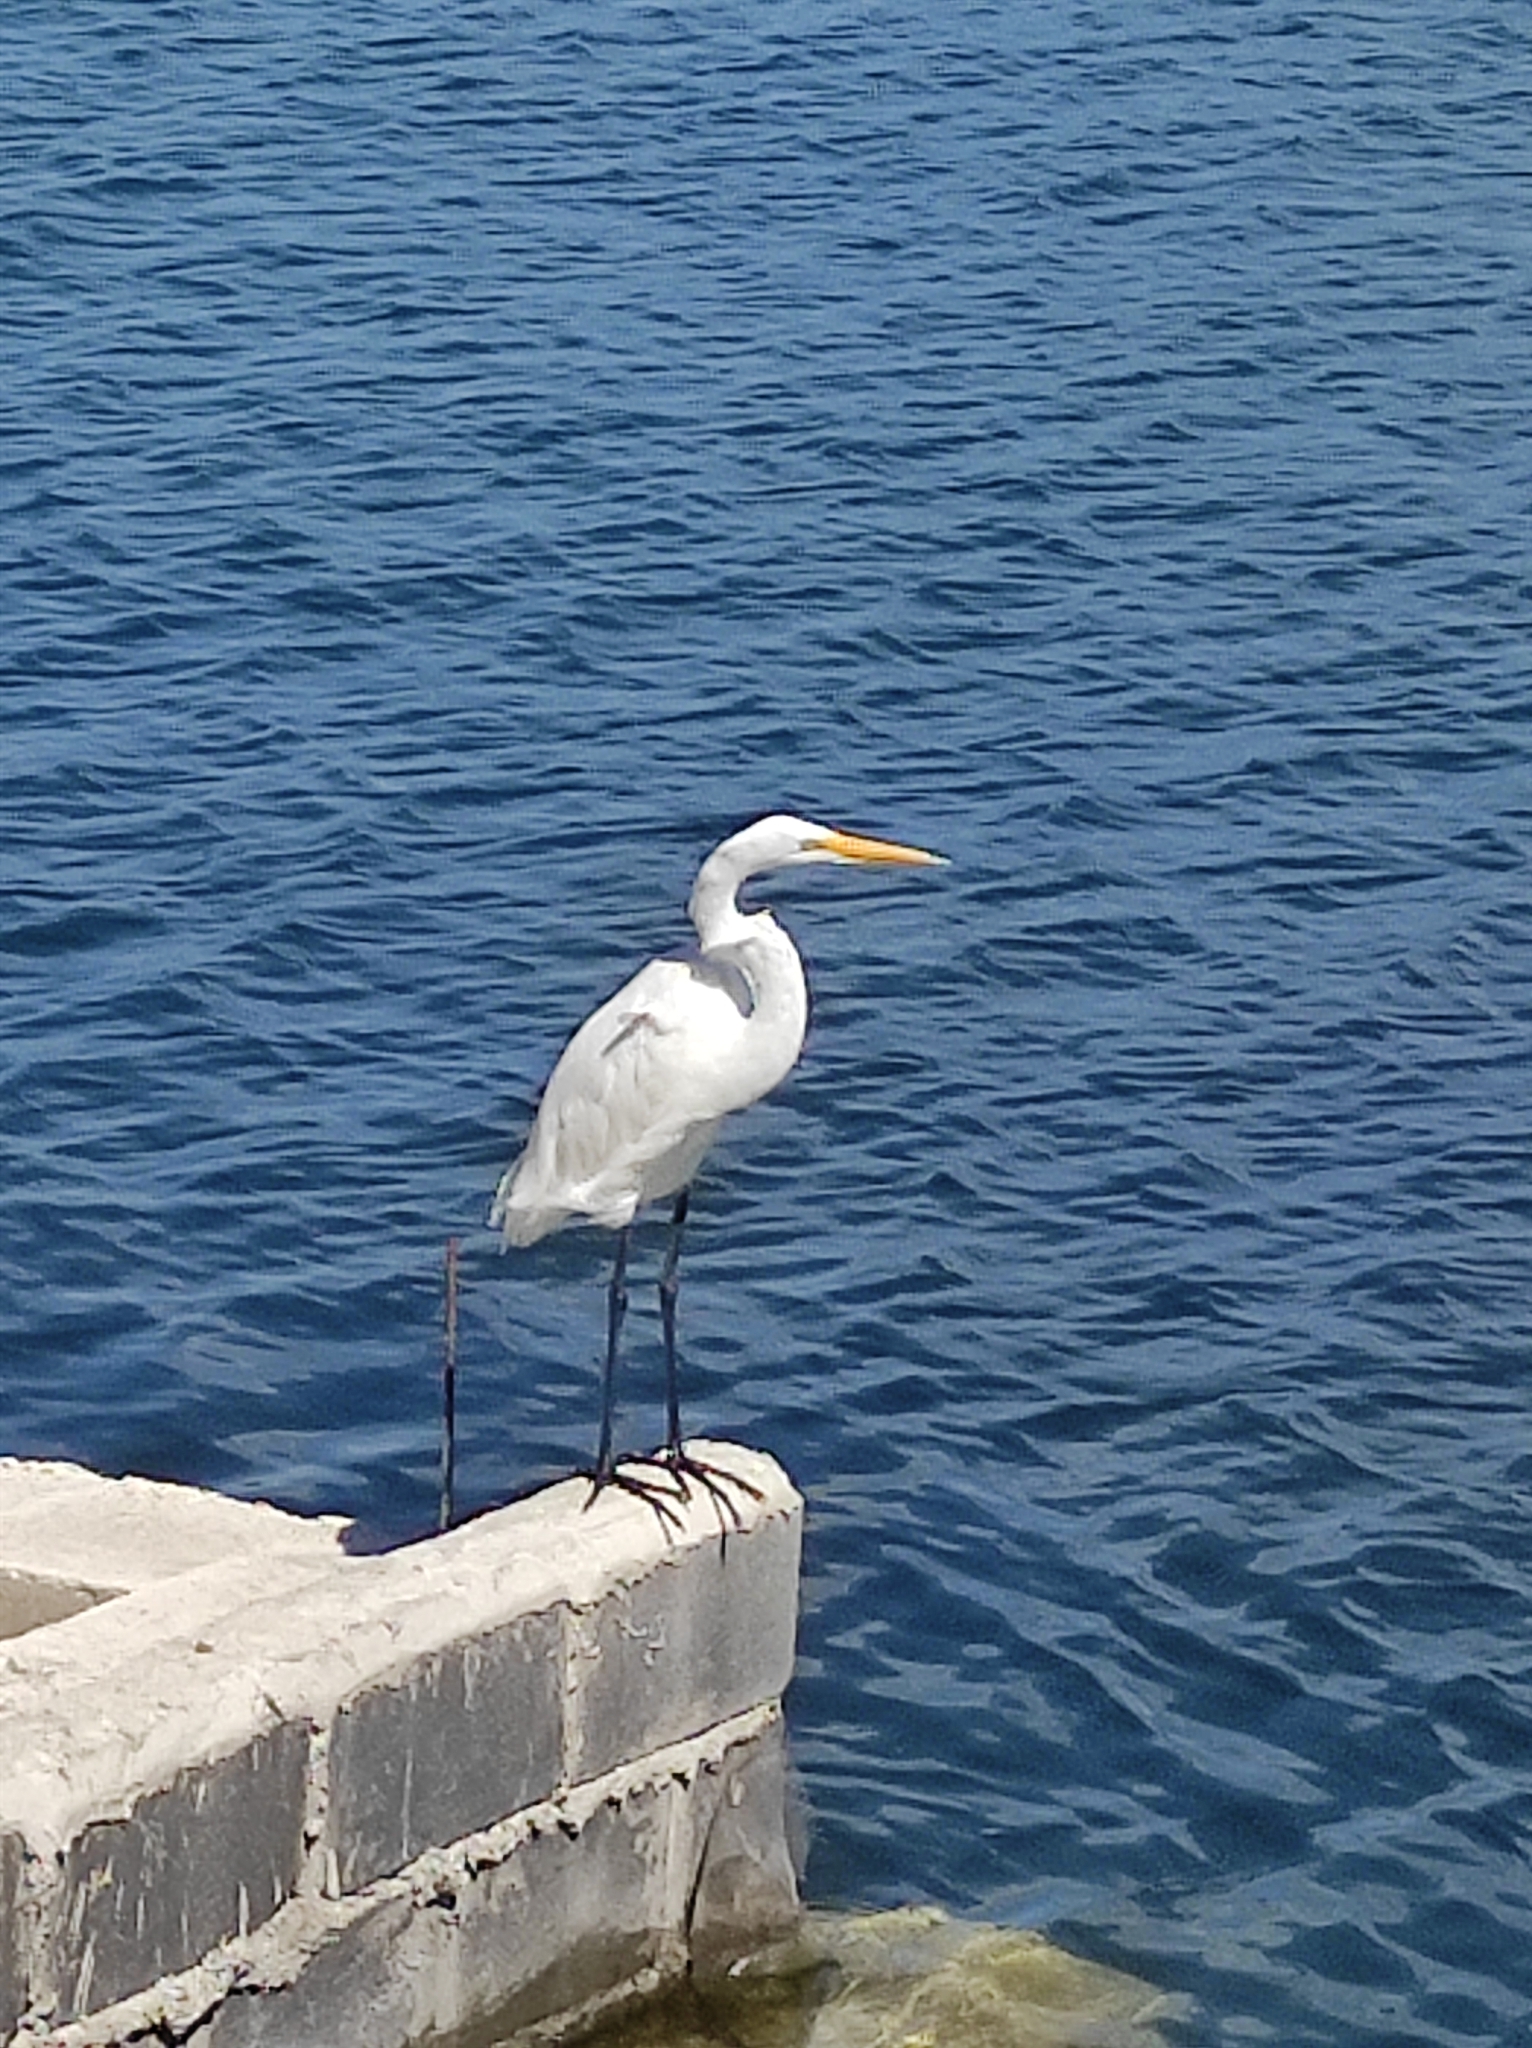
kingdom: Animalia
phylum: Chordata
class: Aves
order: Pelecaniformes
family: Ardeidae
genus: Ardea
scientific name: Ardea alba
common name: Great egret
